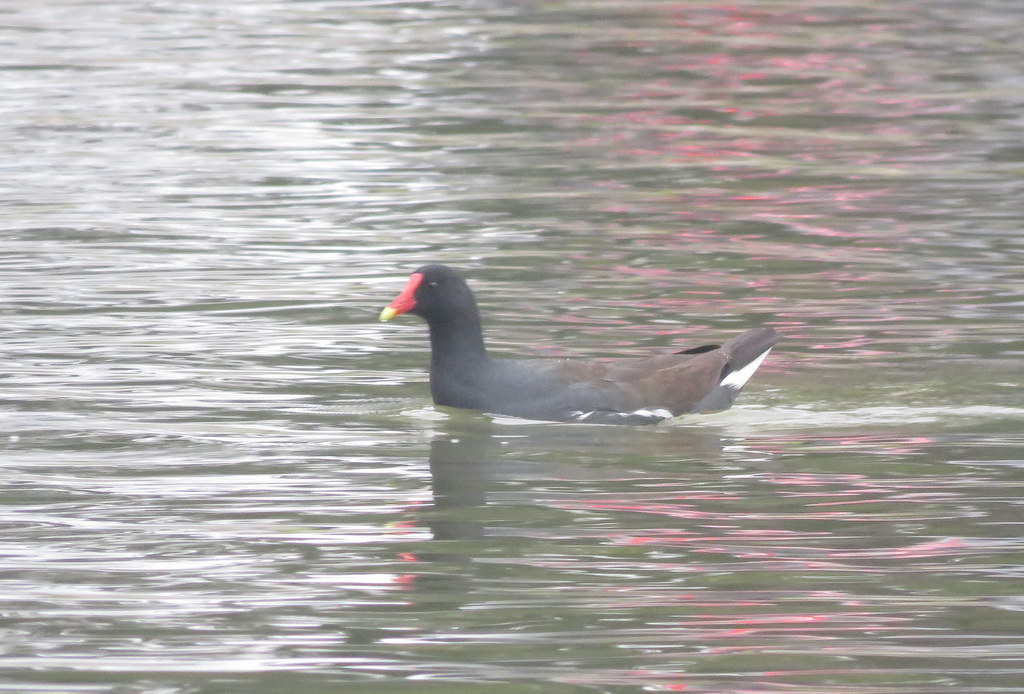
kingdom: Animalia
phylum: Chordata
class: Aves
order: Gruiformes
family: Rallidae
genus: Gallinula
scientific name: Gallinula chloropus
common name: Common moorhen
